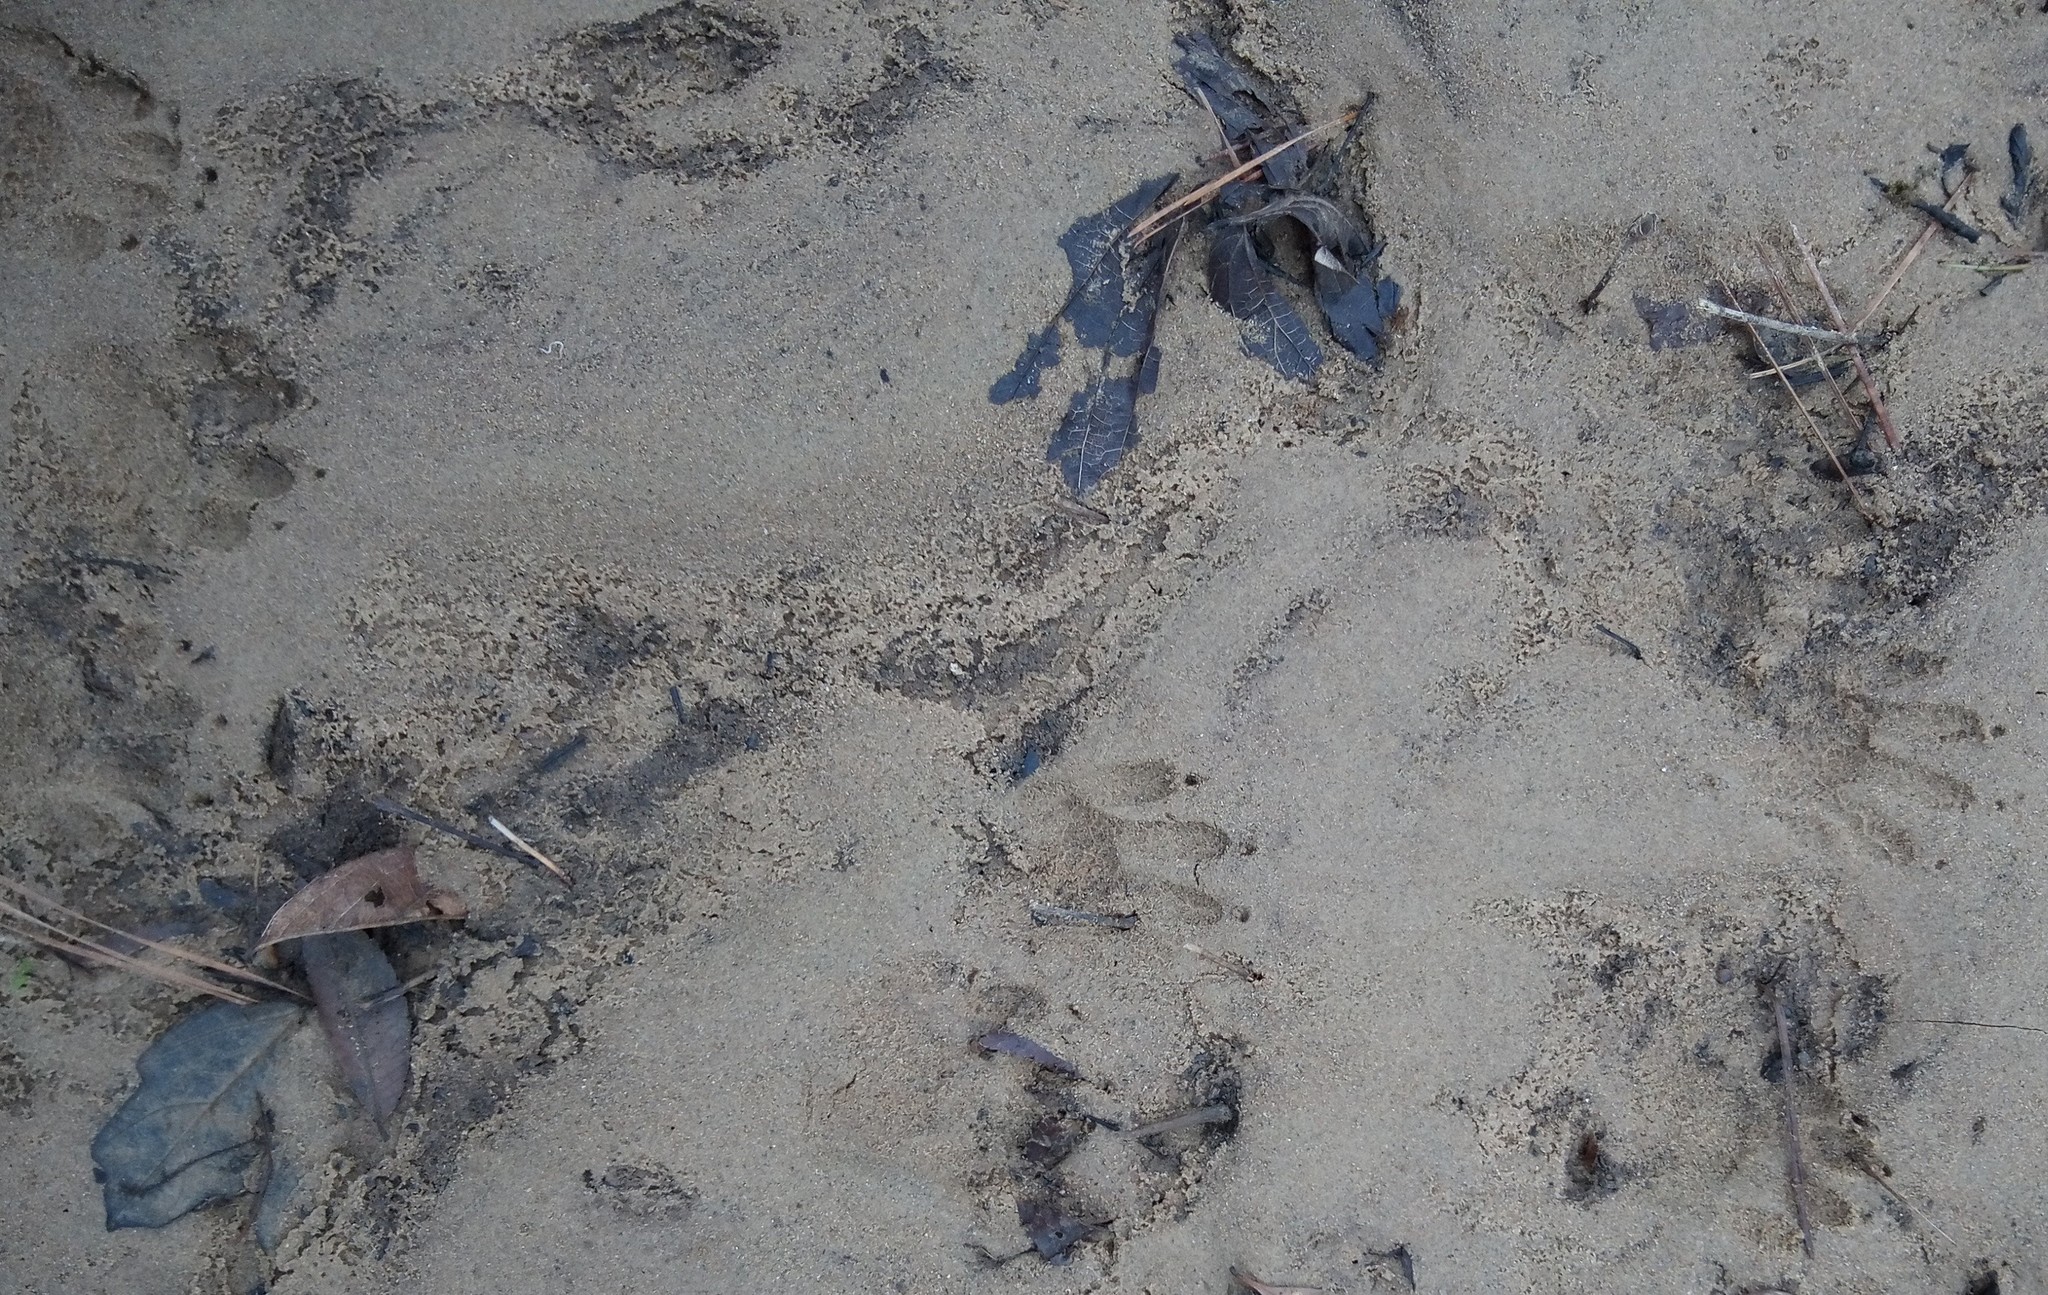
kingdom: Animalia
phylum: Chordata
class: Mammalia
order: Carnivora
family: Procyonidae
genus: Procyon
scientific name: Procyon lotor
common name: Raccoon
